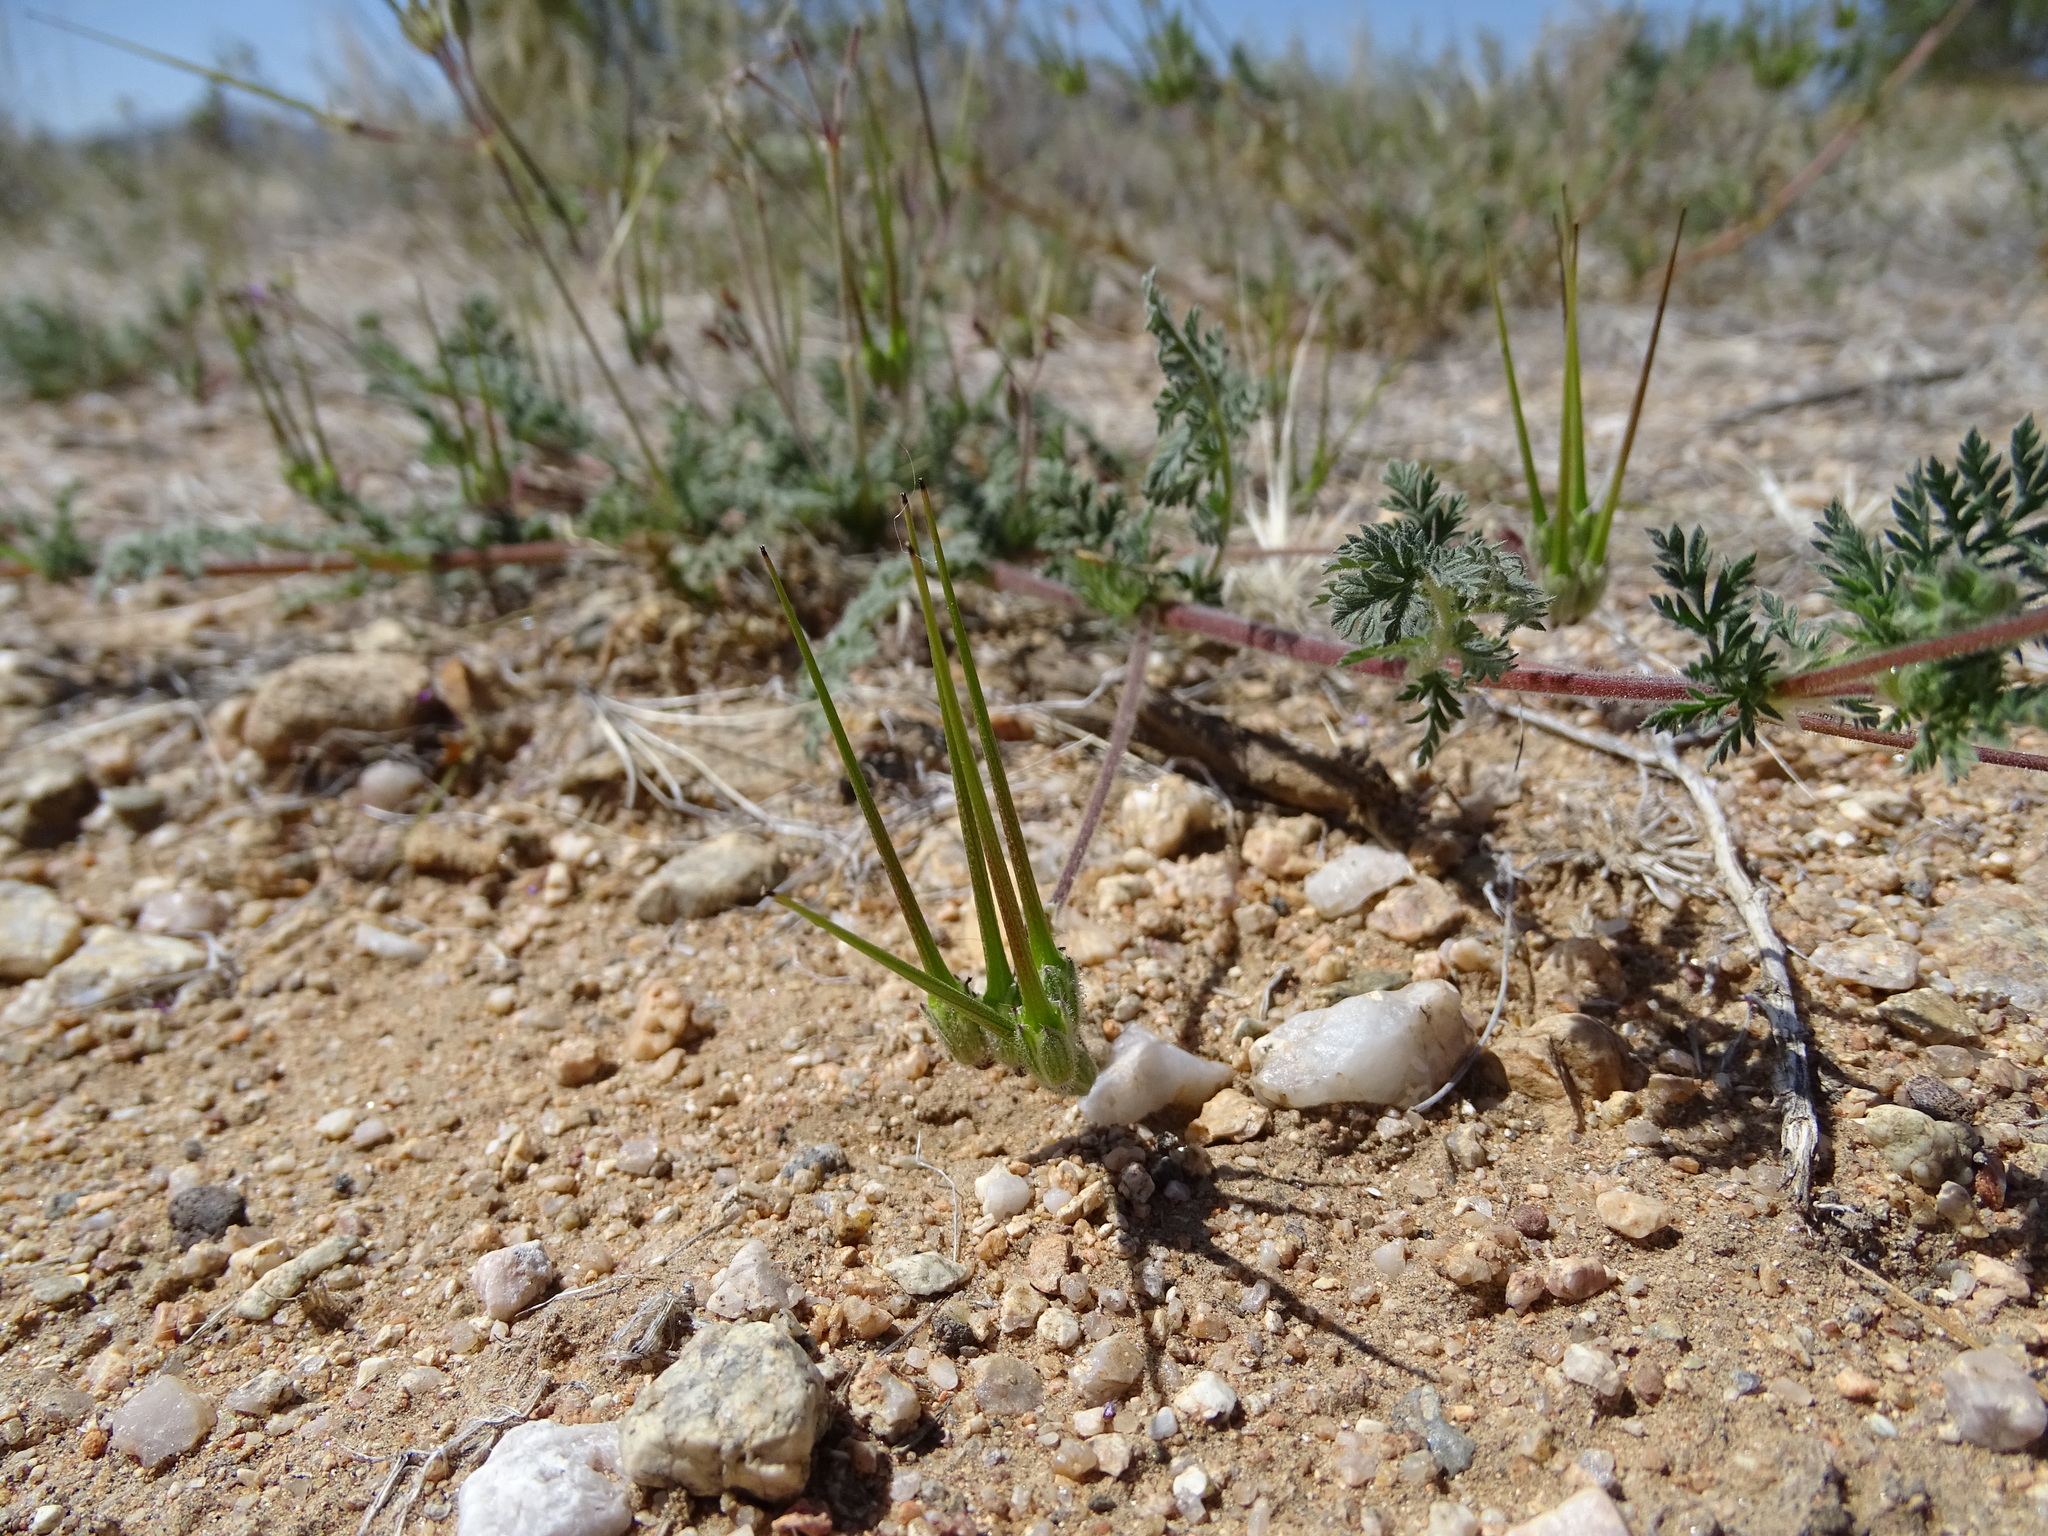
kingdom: Plantae
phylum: Tracheophyta
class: Magnoliopsida
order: Geraniales
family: Geraniaceae
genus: Erodium
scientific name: Erodium cicutarium
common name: Common stork's-bill
